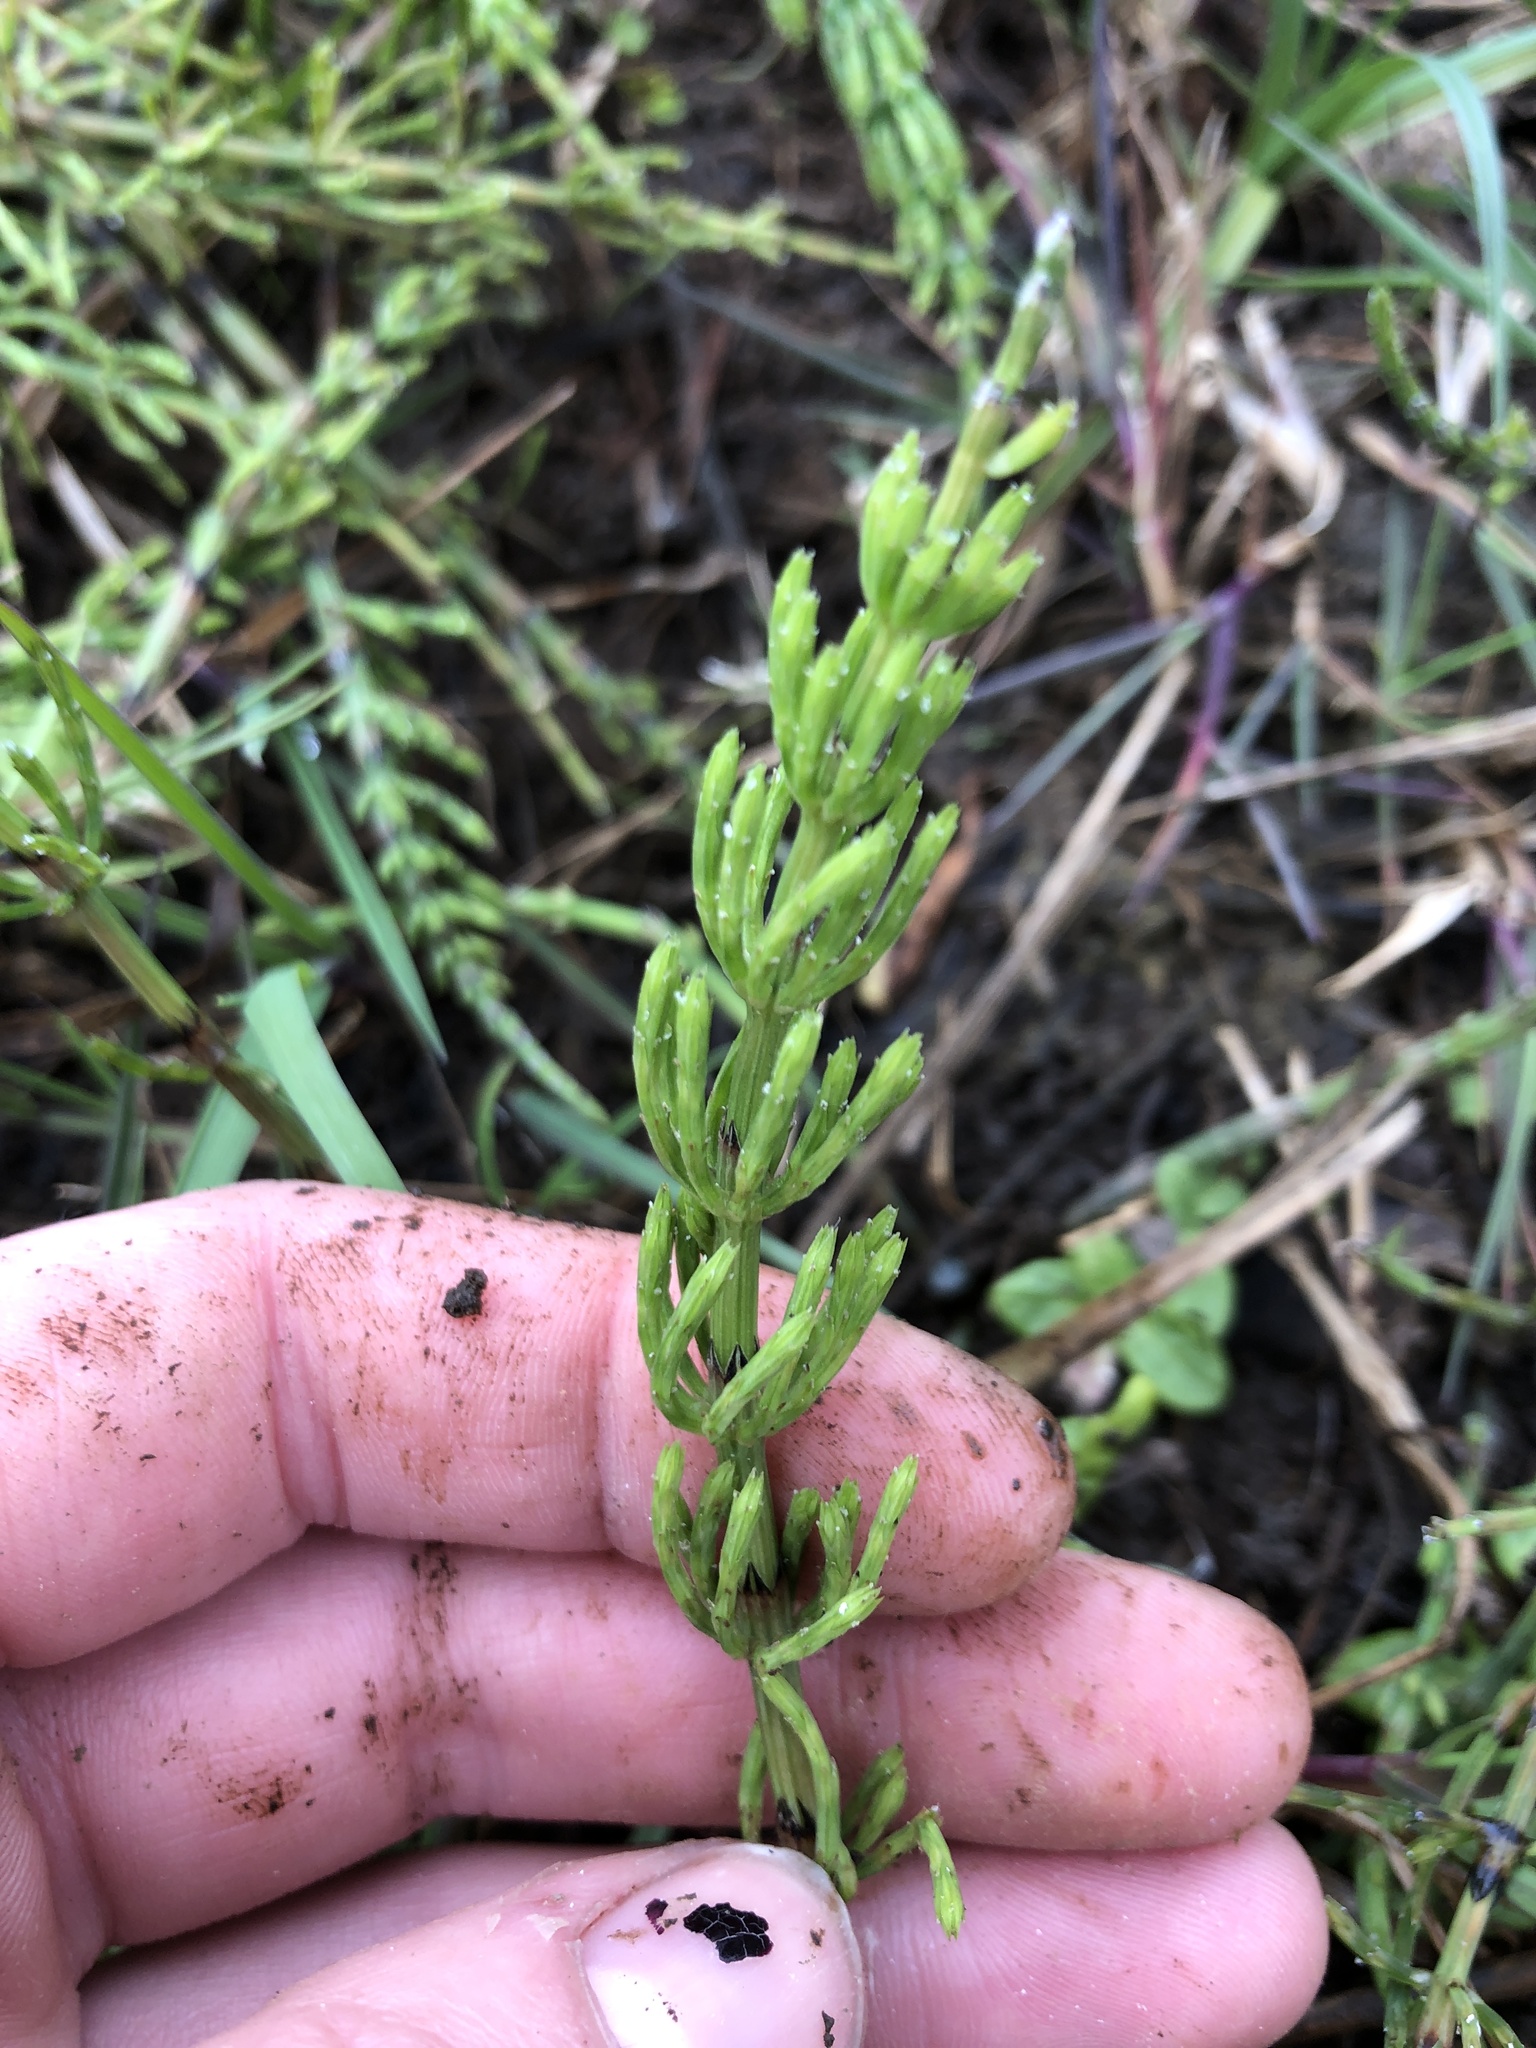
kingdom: Plantae
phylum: Tracheophyta
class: Polypodiopsida
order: Equisetales
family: Equisetaceae
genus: Equisetum
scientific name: Equisetum arvense
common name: Field horsetail
